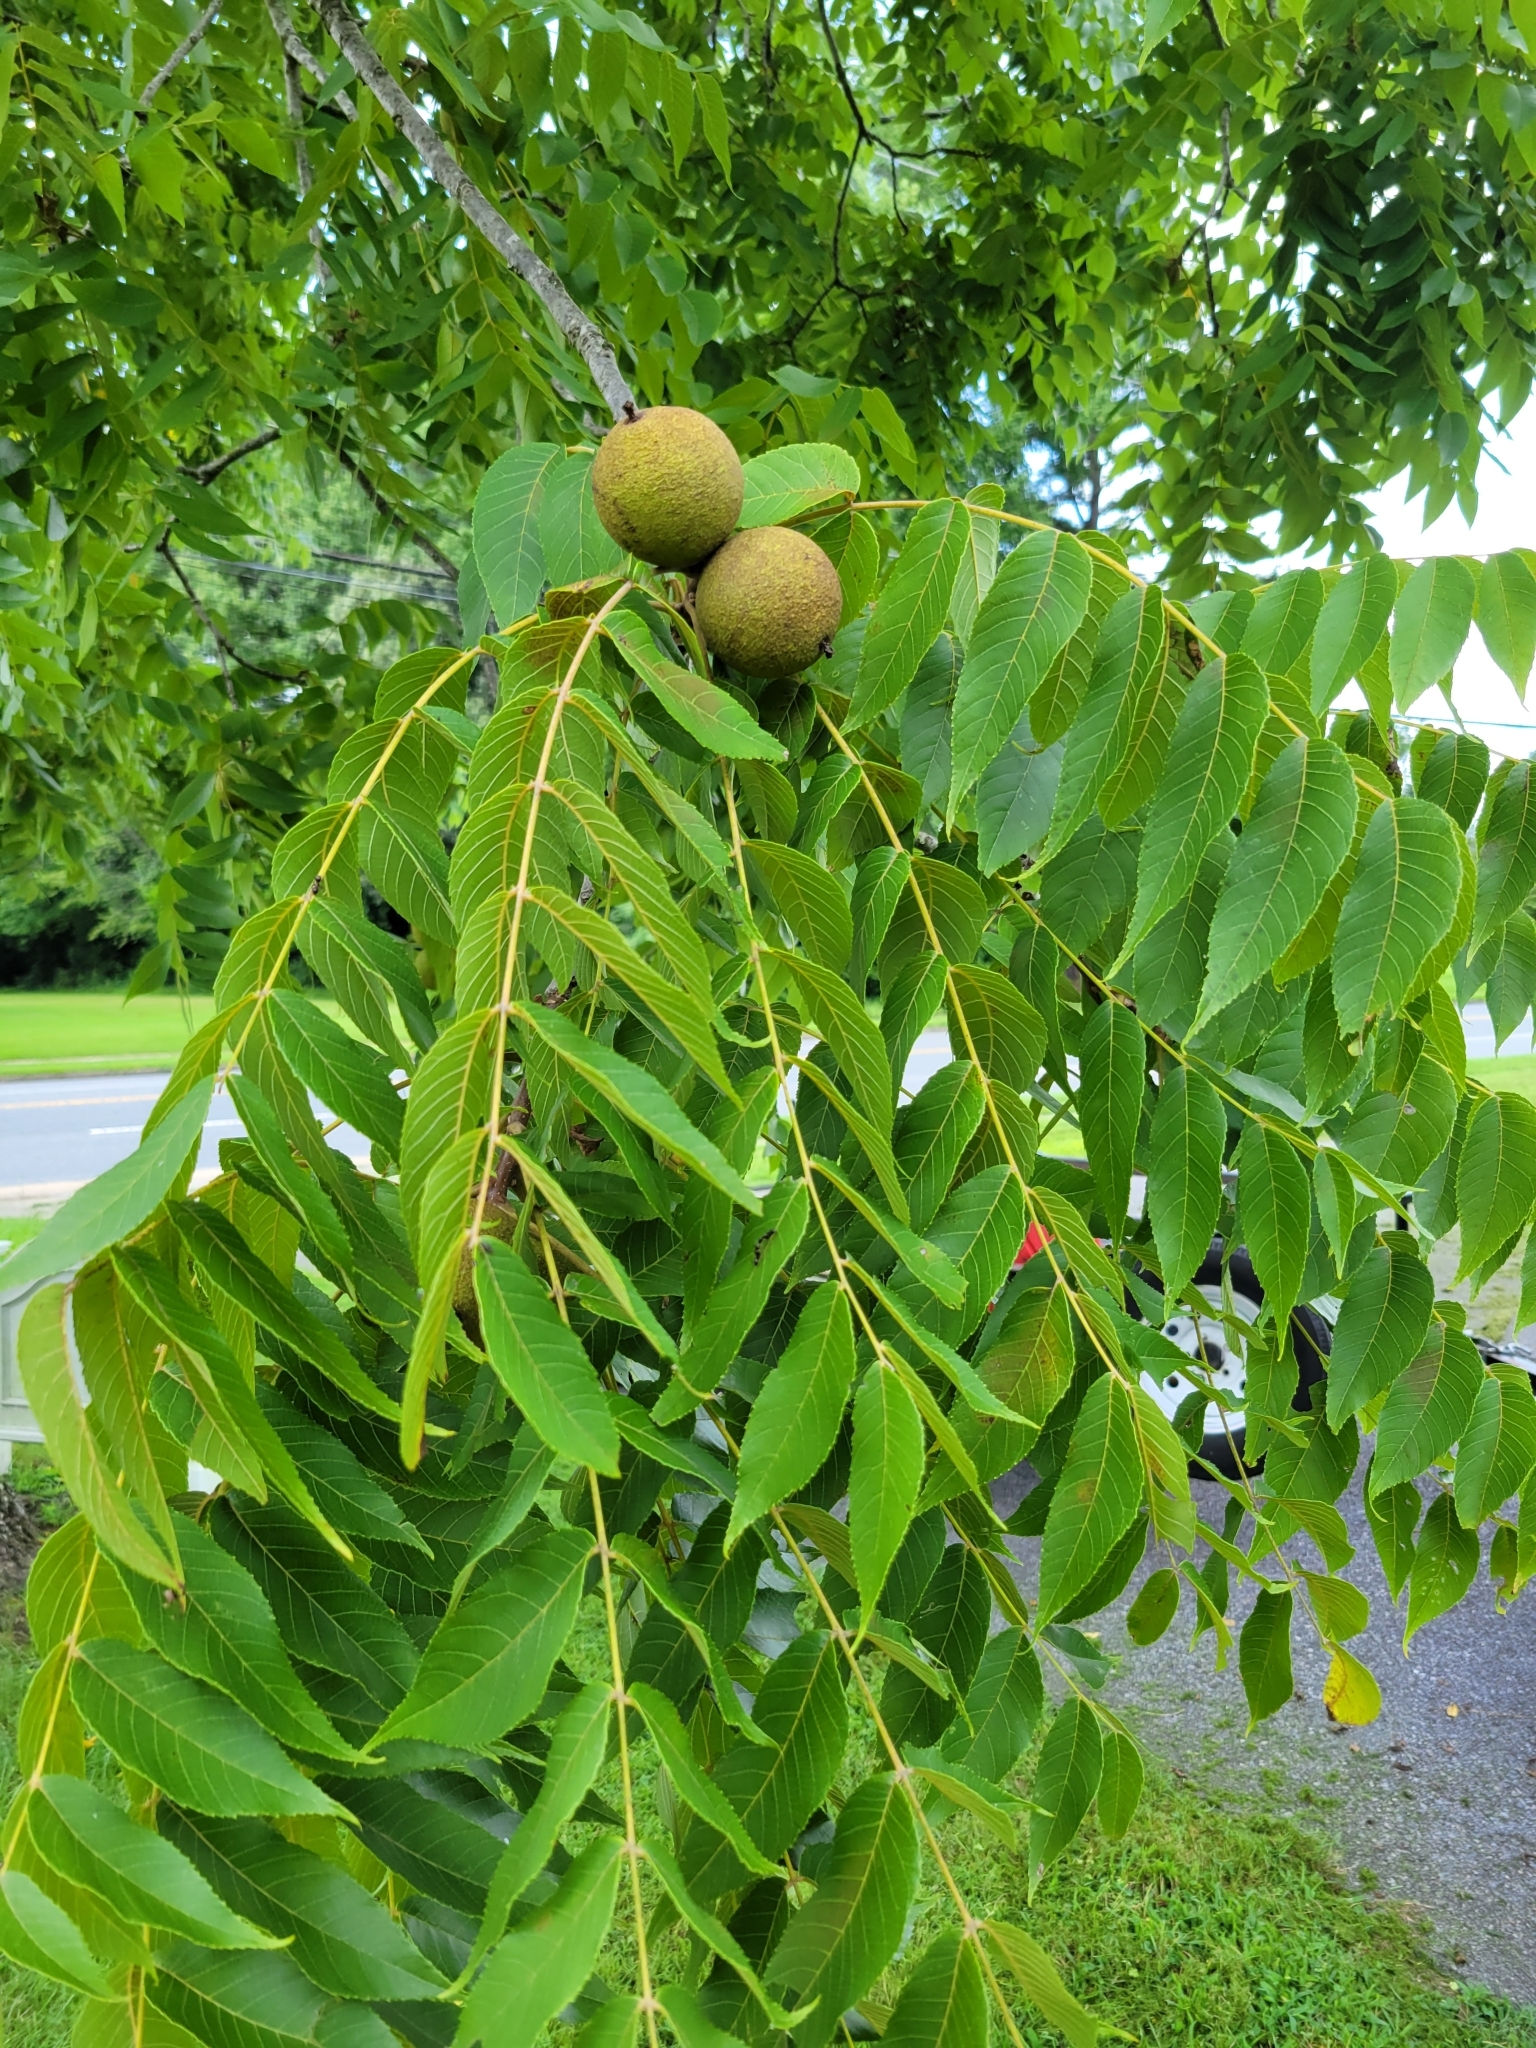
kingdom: Plantae
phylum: Tracheophyta
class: Magnoliopsida
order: Fagales
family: Juglandaceae
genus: Juglans
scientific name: Juglans nigra
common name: Black walnut
